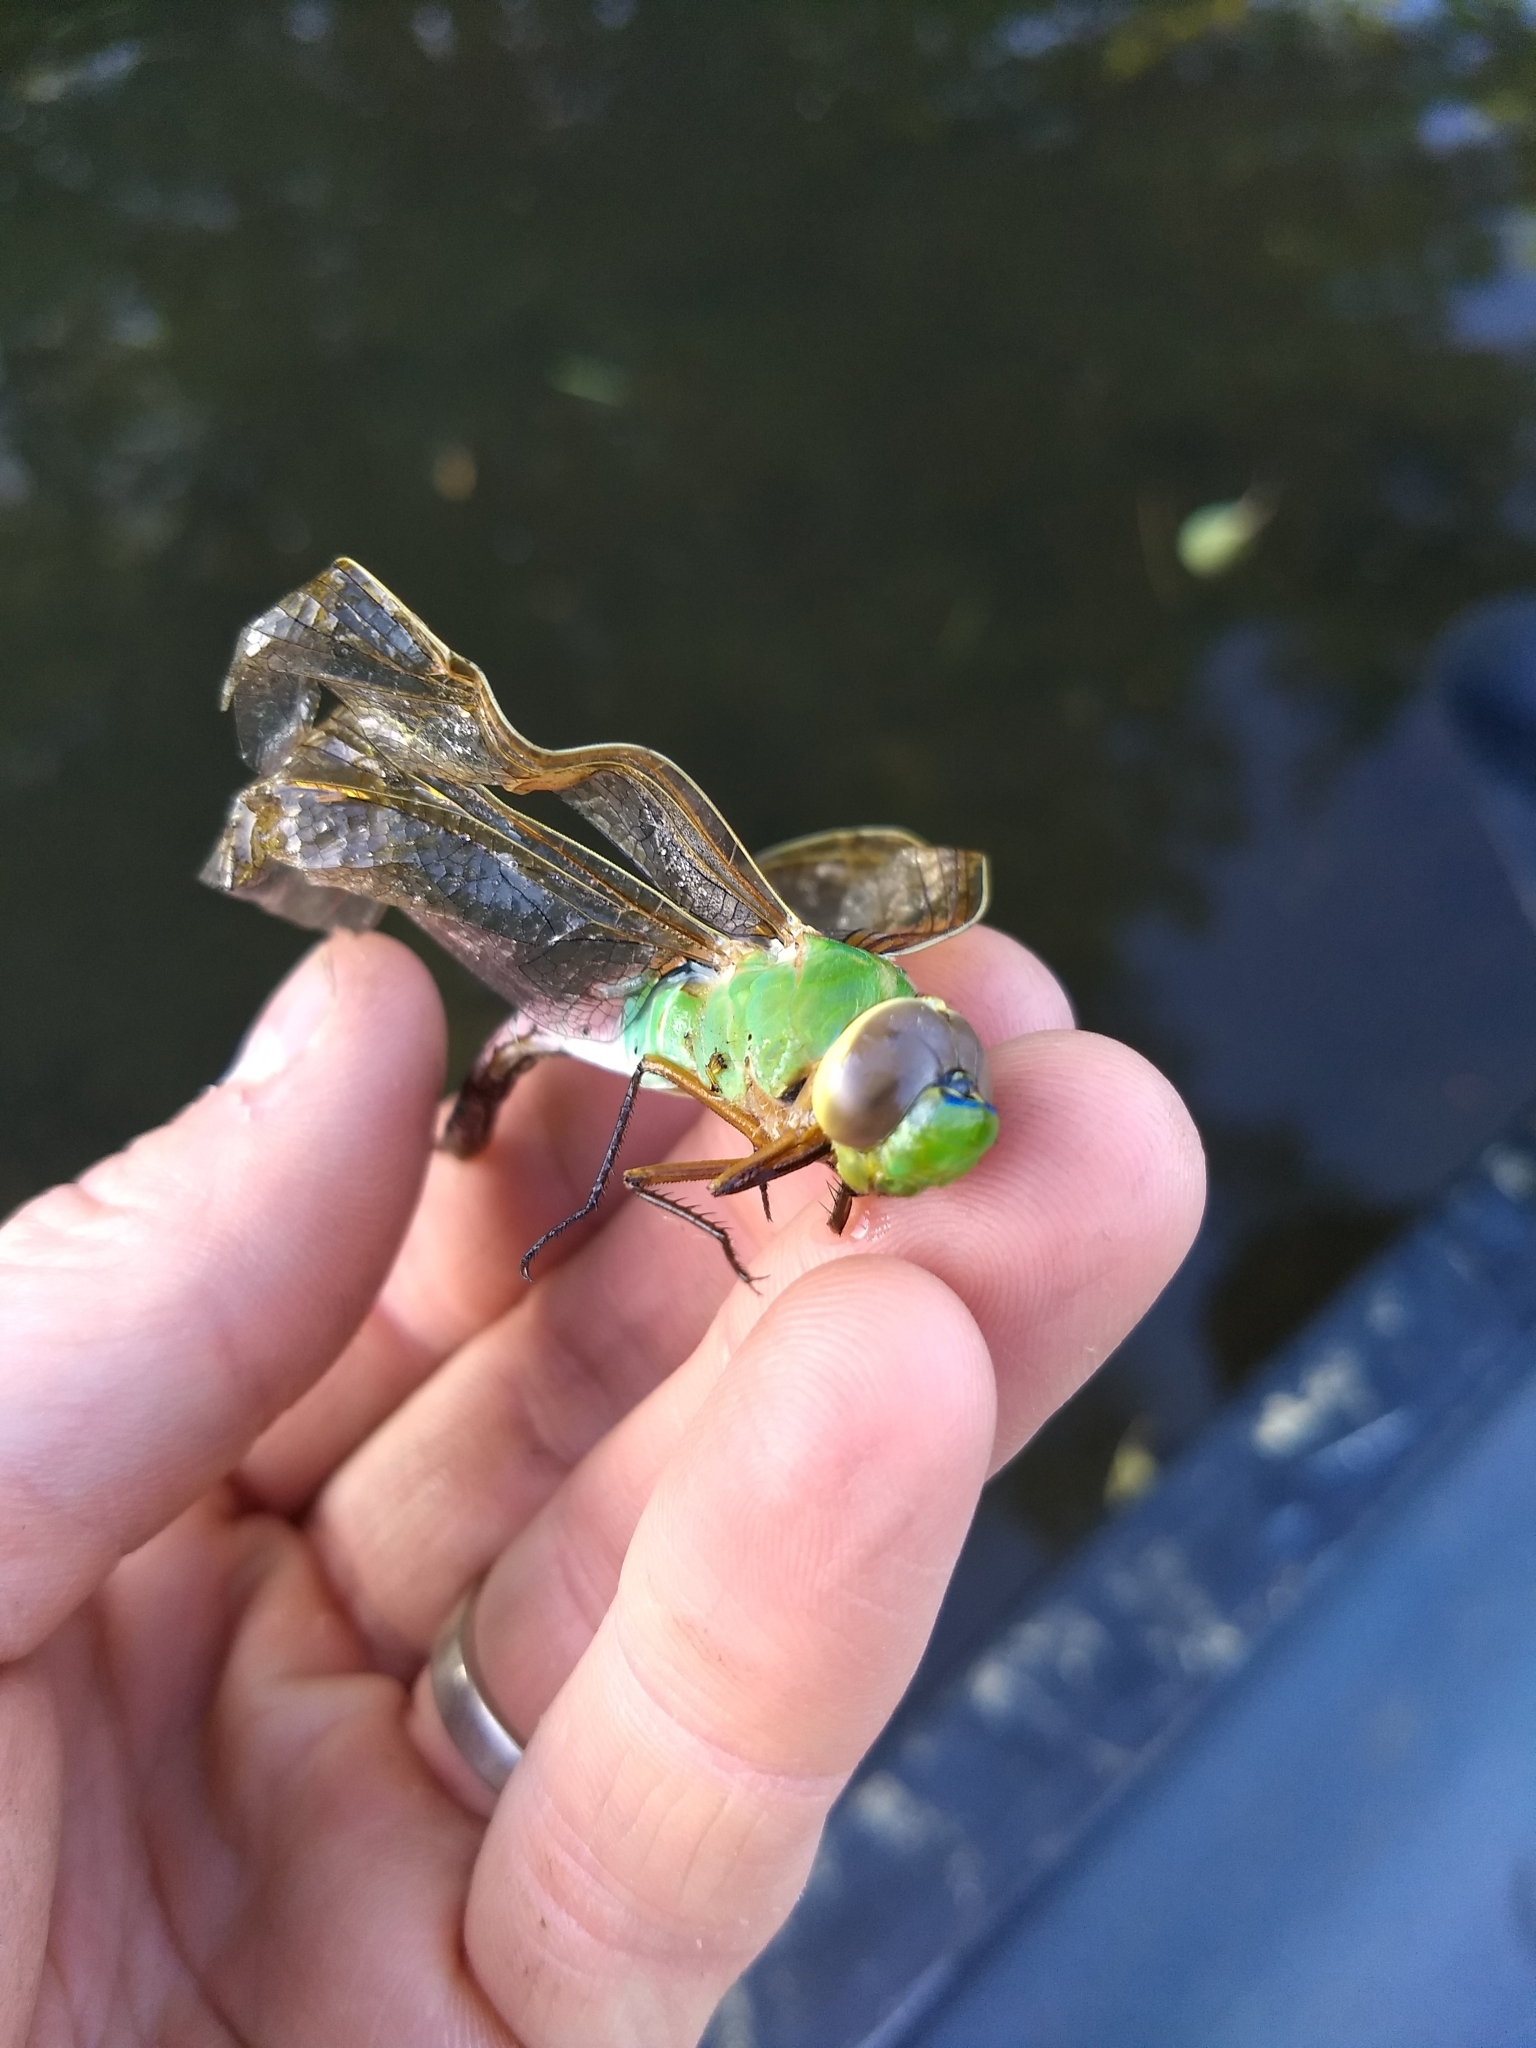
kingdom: Animalia
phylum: Arthropoda
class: Insecta
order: Odonata
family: Aeshnidae
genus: Anax
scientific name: Anax junius
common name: Common green darner
